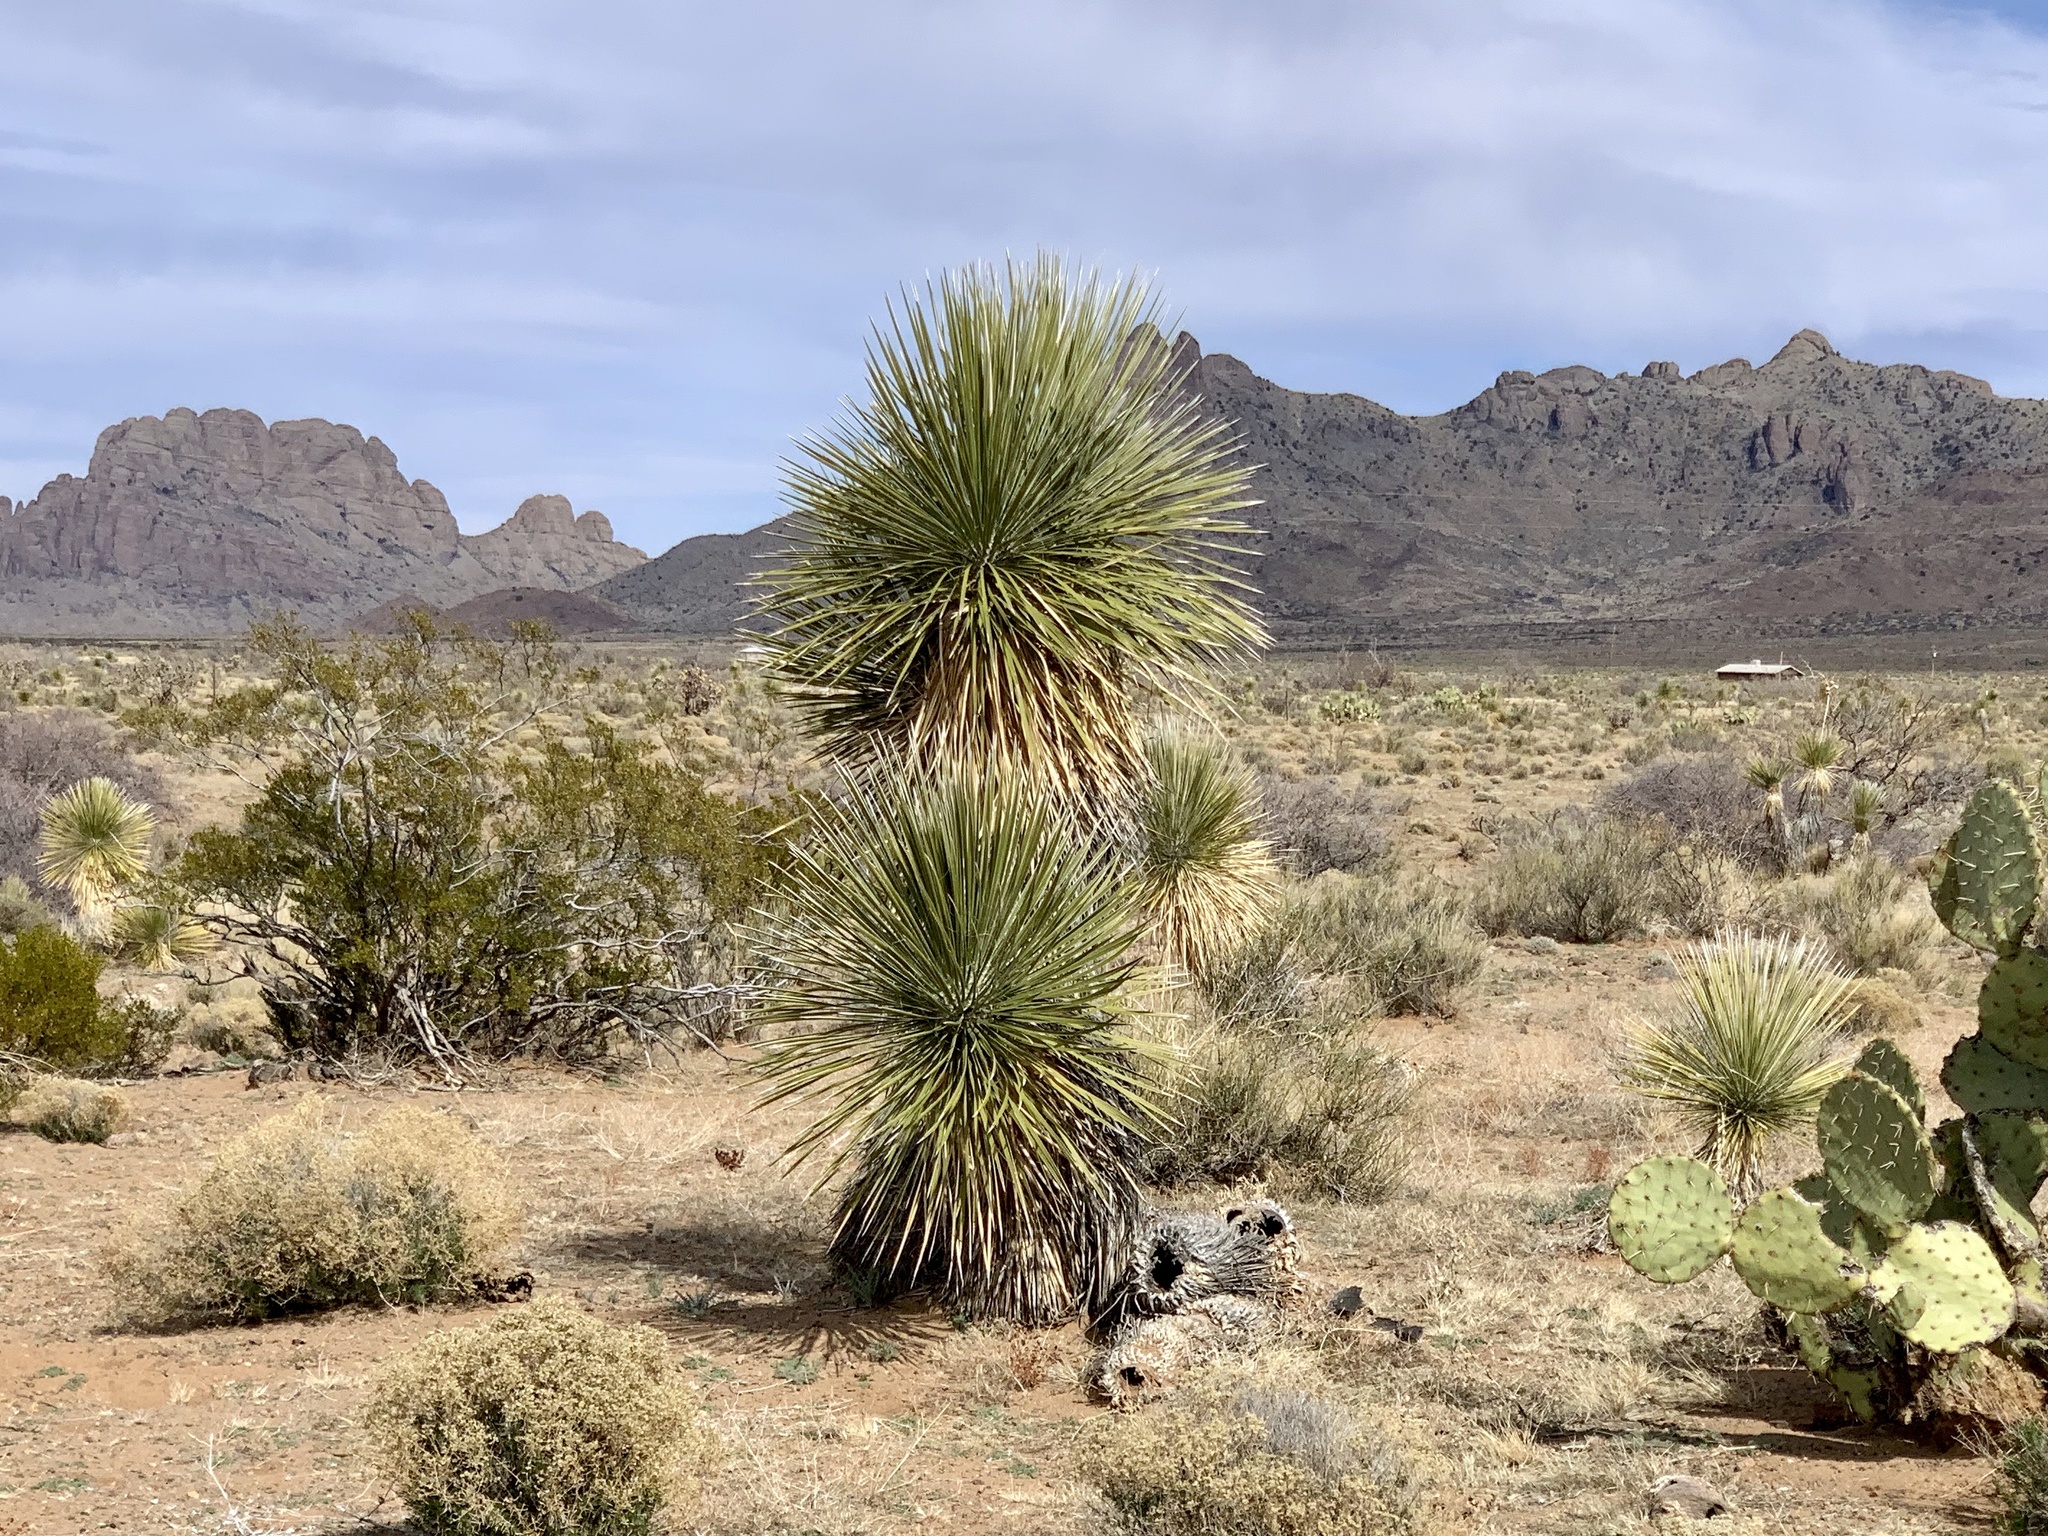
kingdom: Plantae
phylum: Tracheophyta
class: Liliopsida
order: Asparagales
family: Asparagaceae
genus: Yucca
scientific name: Yucca elata
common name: Palmella
